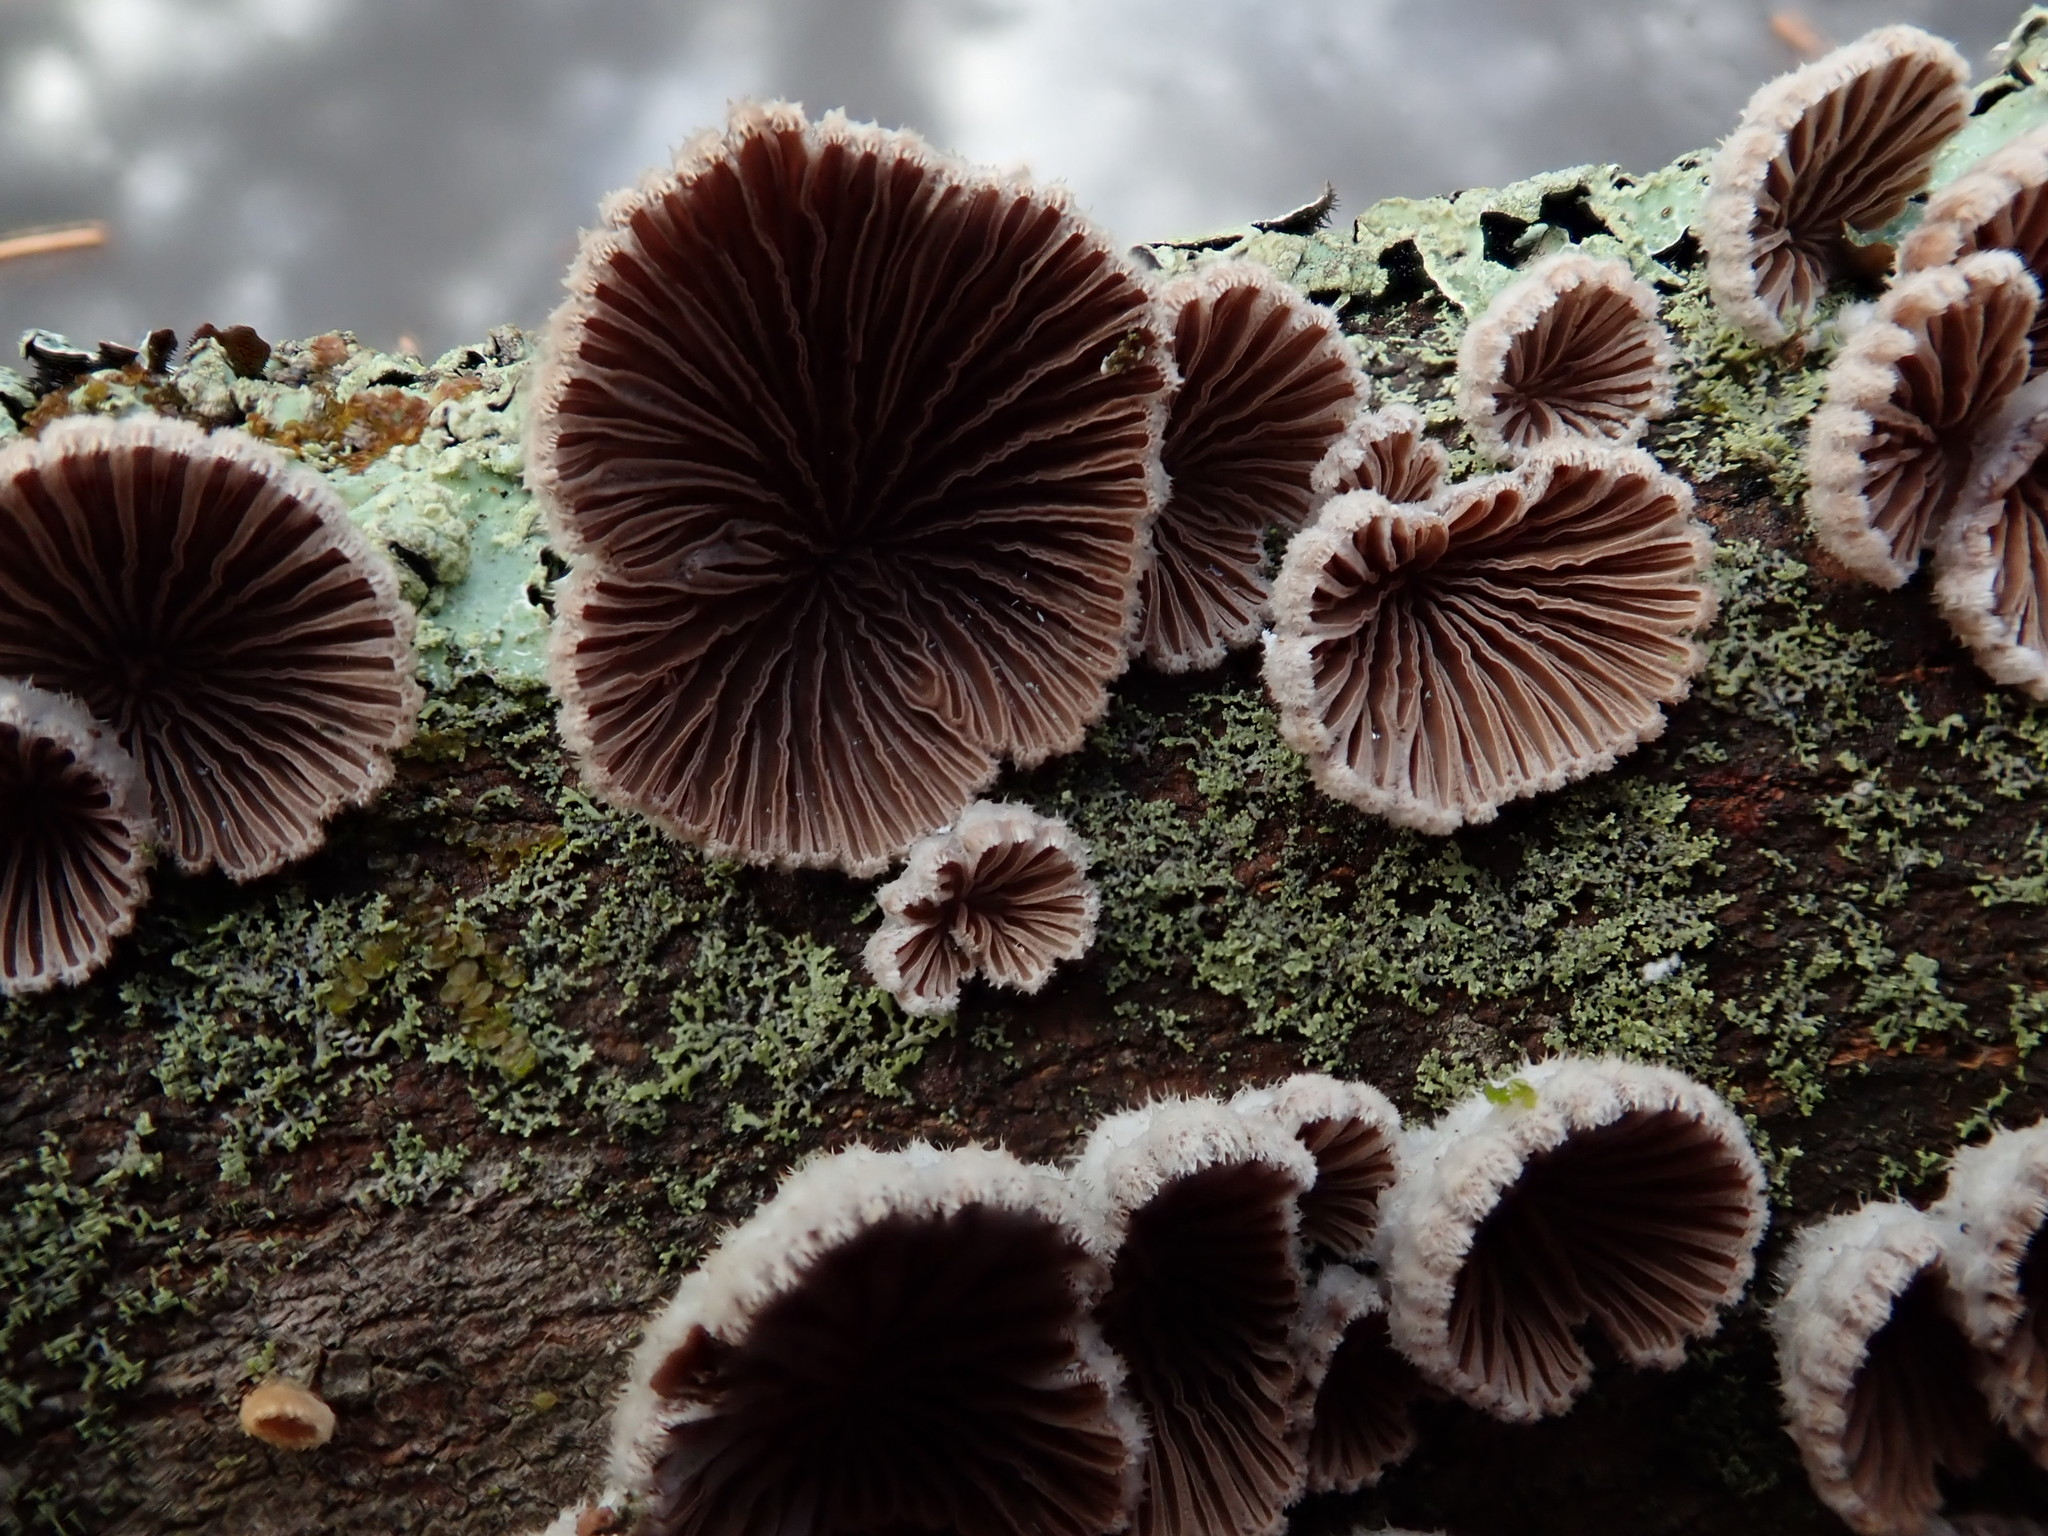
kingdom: Fungi
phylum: Basidiomycota
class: Agaricomycetes
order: Agaricales
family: Schizophyllaceae
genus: Schizophyllum
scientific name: Schizophyllum commune
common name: Common porecrust
